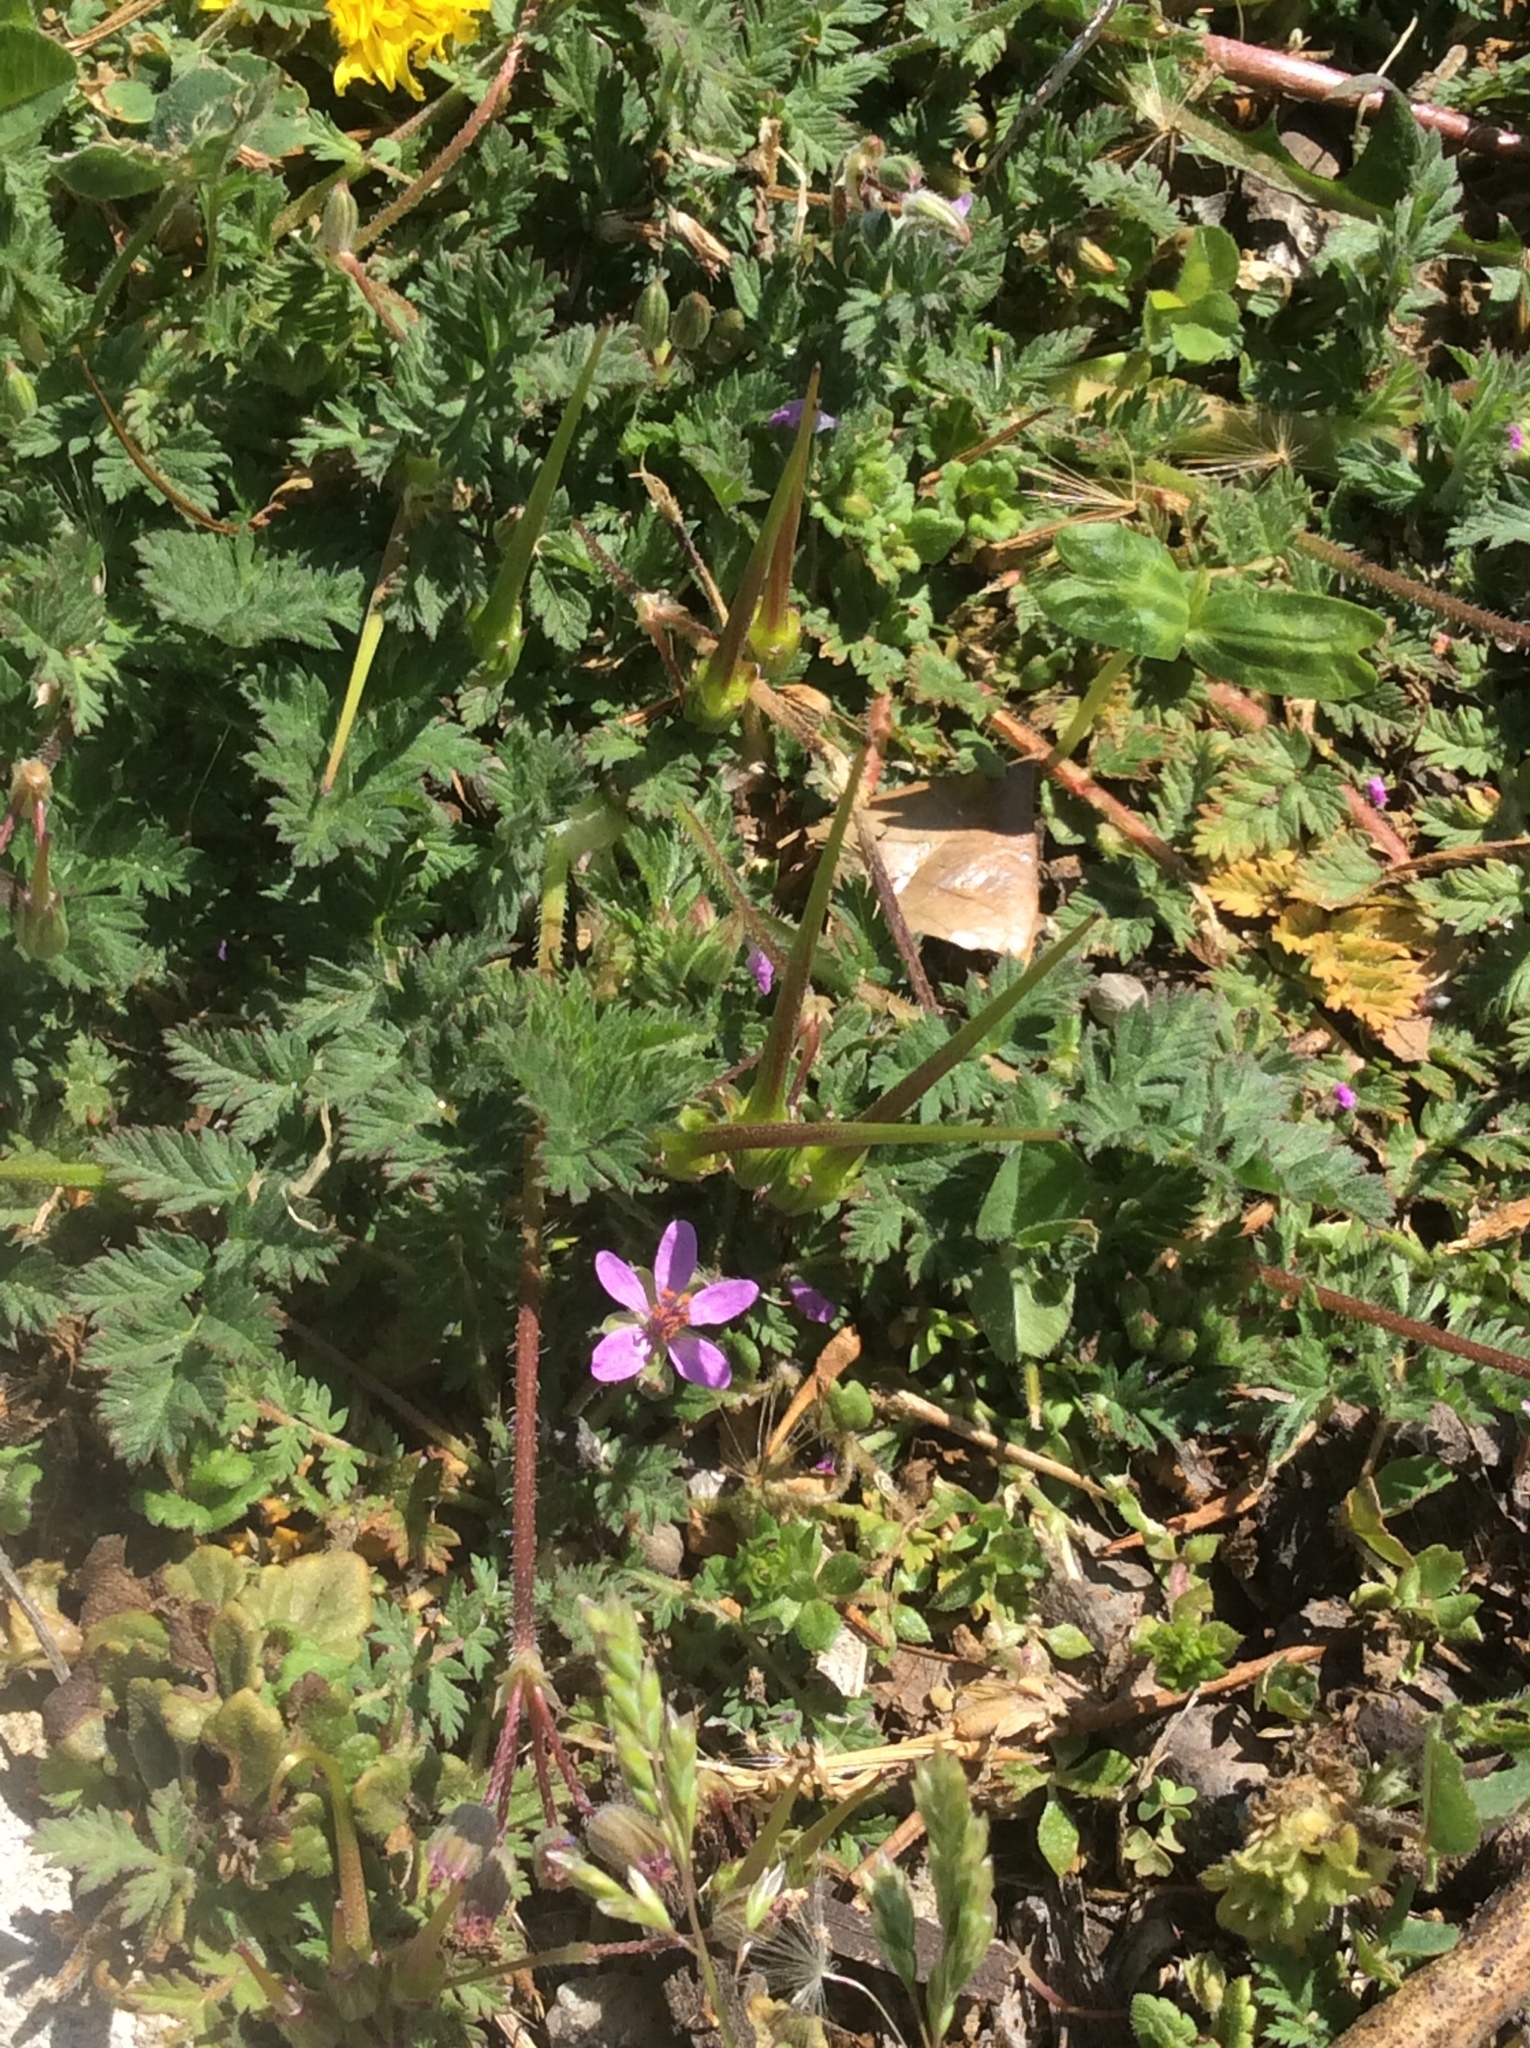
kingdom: Plantae
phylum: Tracheophyta
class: Magnoliopsida
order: Geraniales
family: Geraniaceae
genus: Erodium
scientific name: Erodium cicutarium
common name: Common stork's-bill
